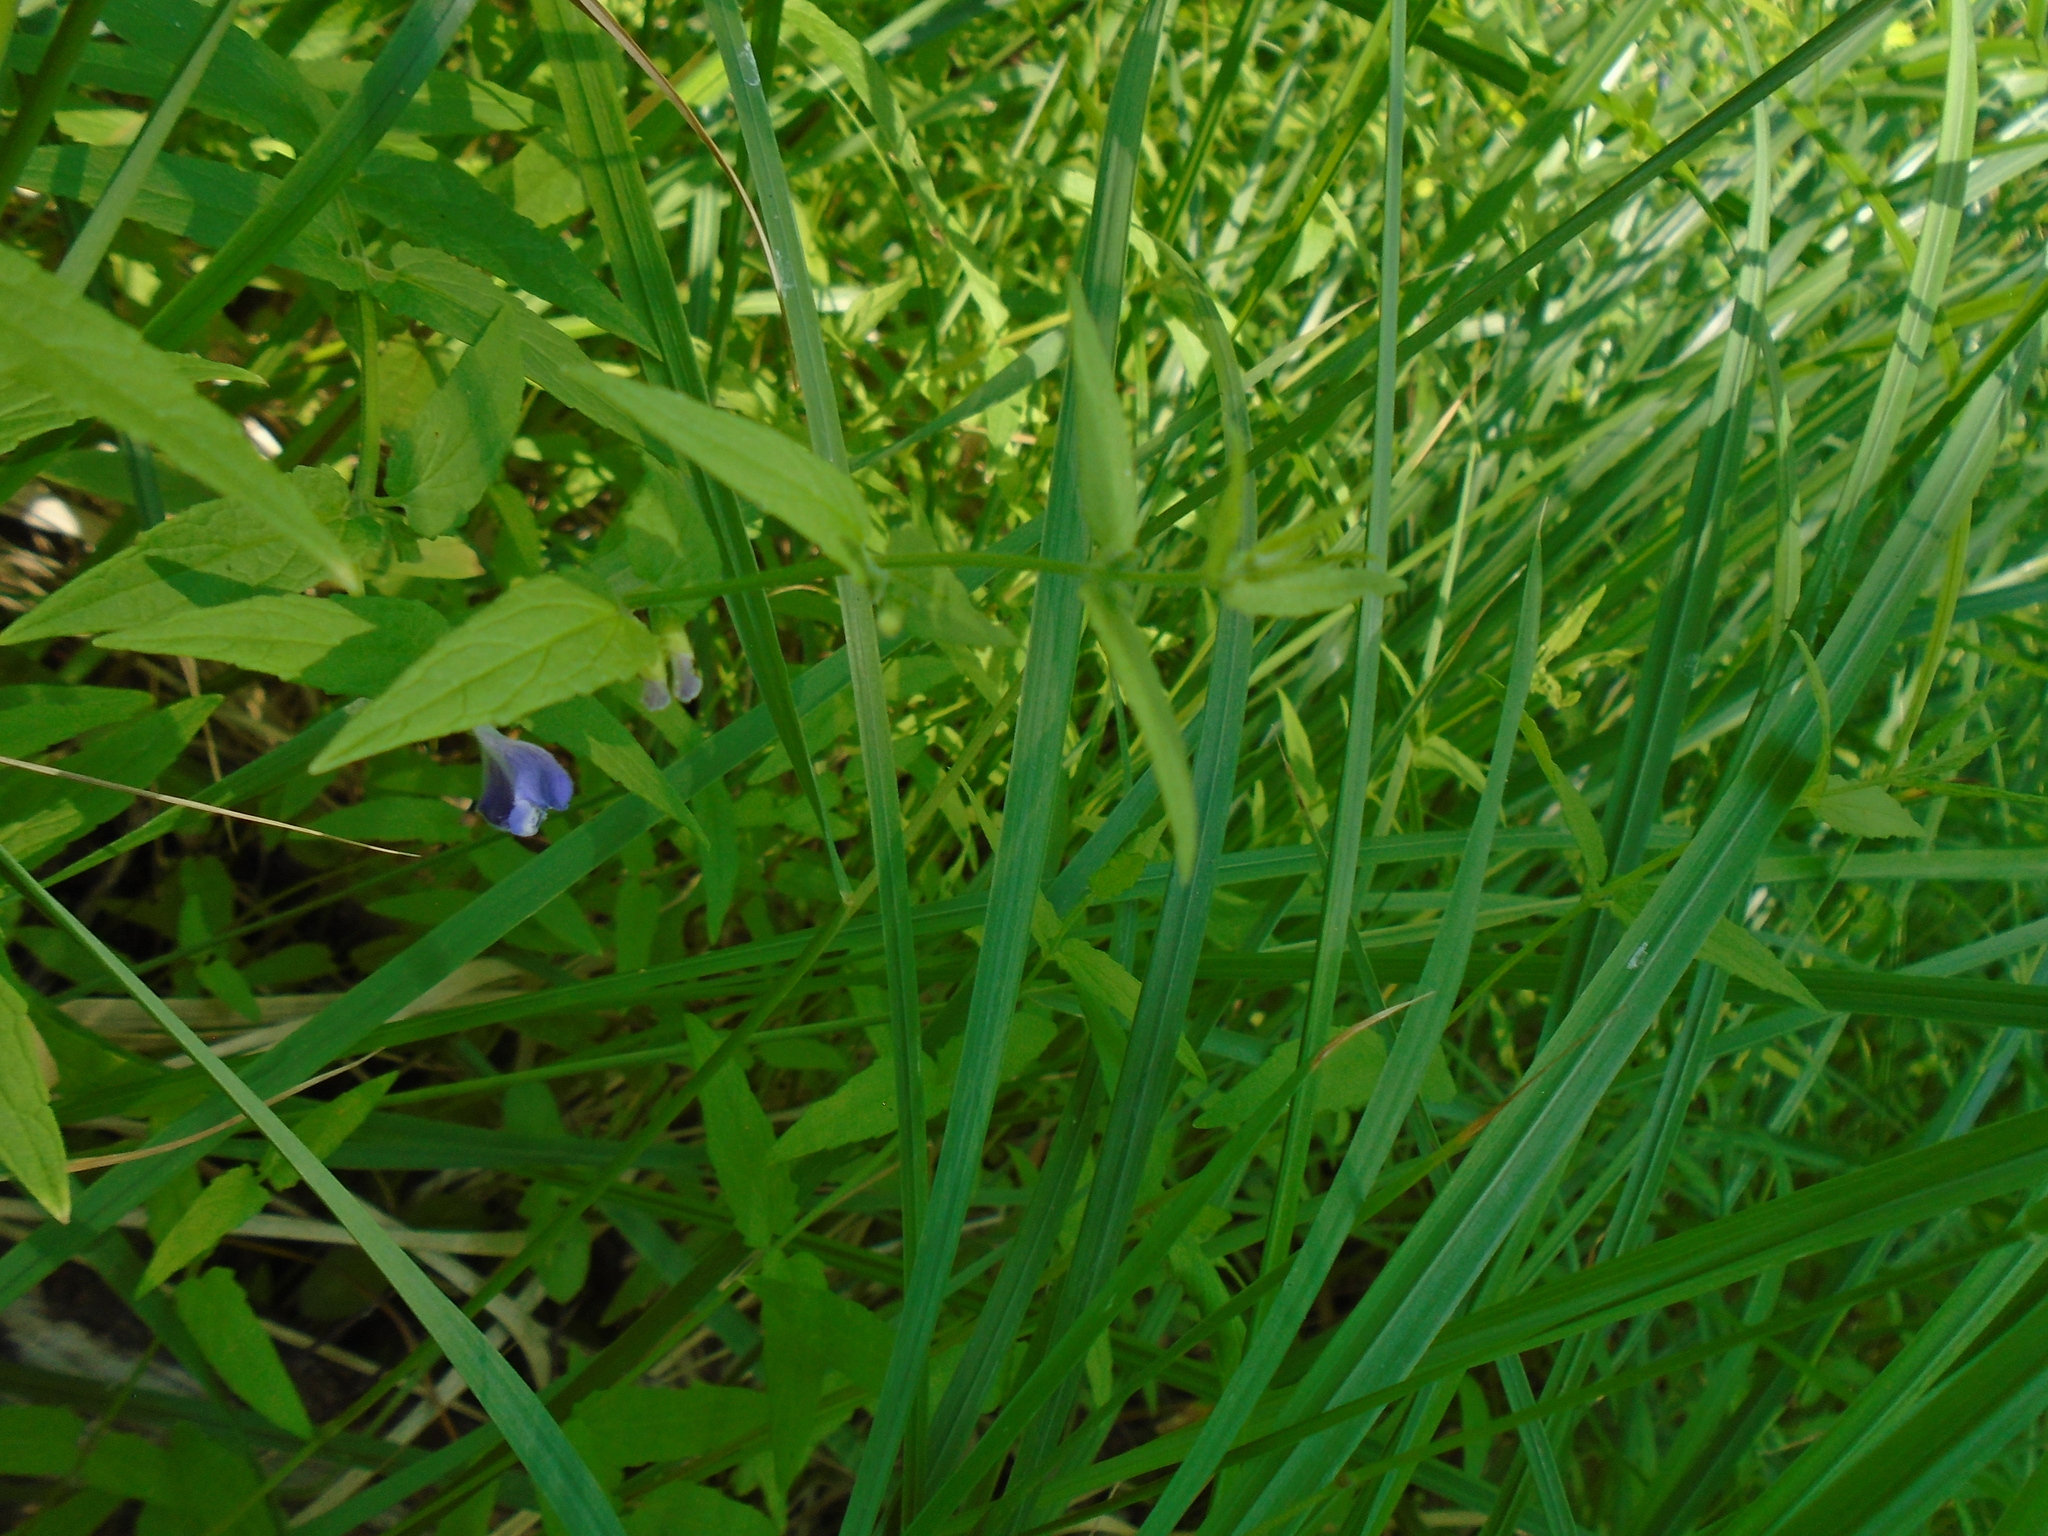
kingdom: Plantae
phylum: Tracheophyta
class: Magnoliopsida
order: Lamiales
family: Lamiaceae
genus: Scutellaria
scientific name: Scutellaria galericulata
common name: Skullcap
